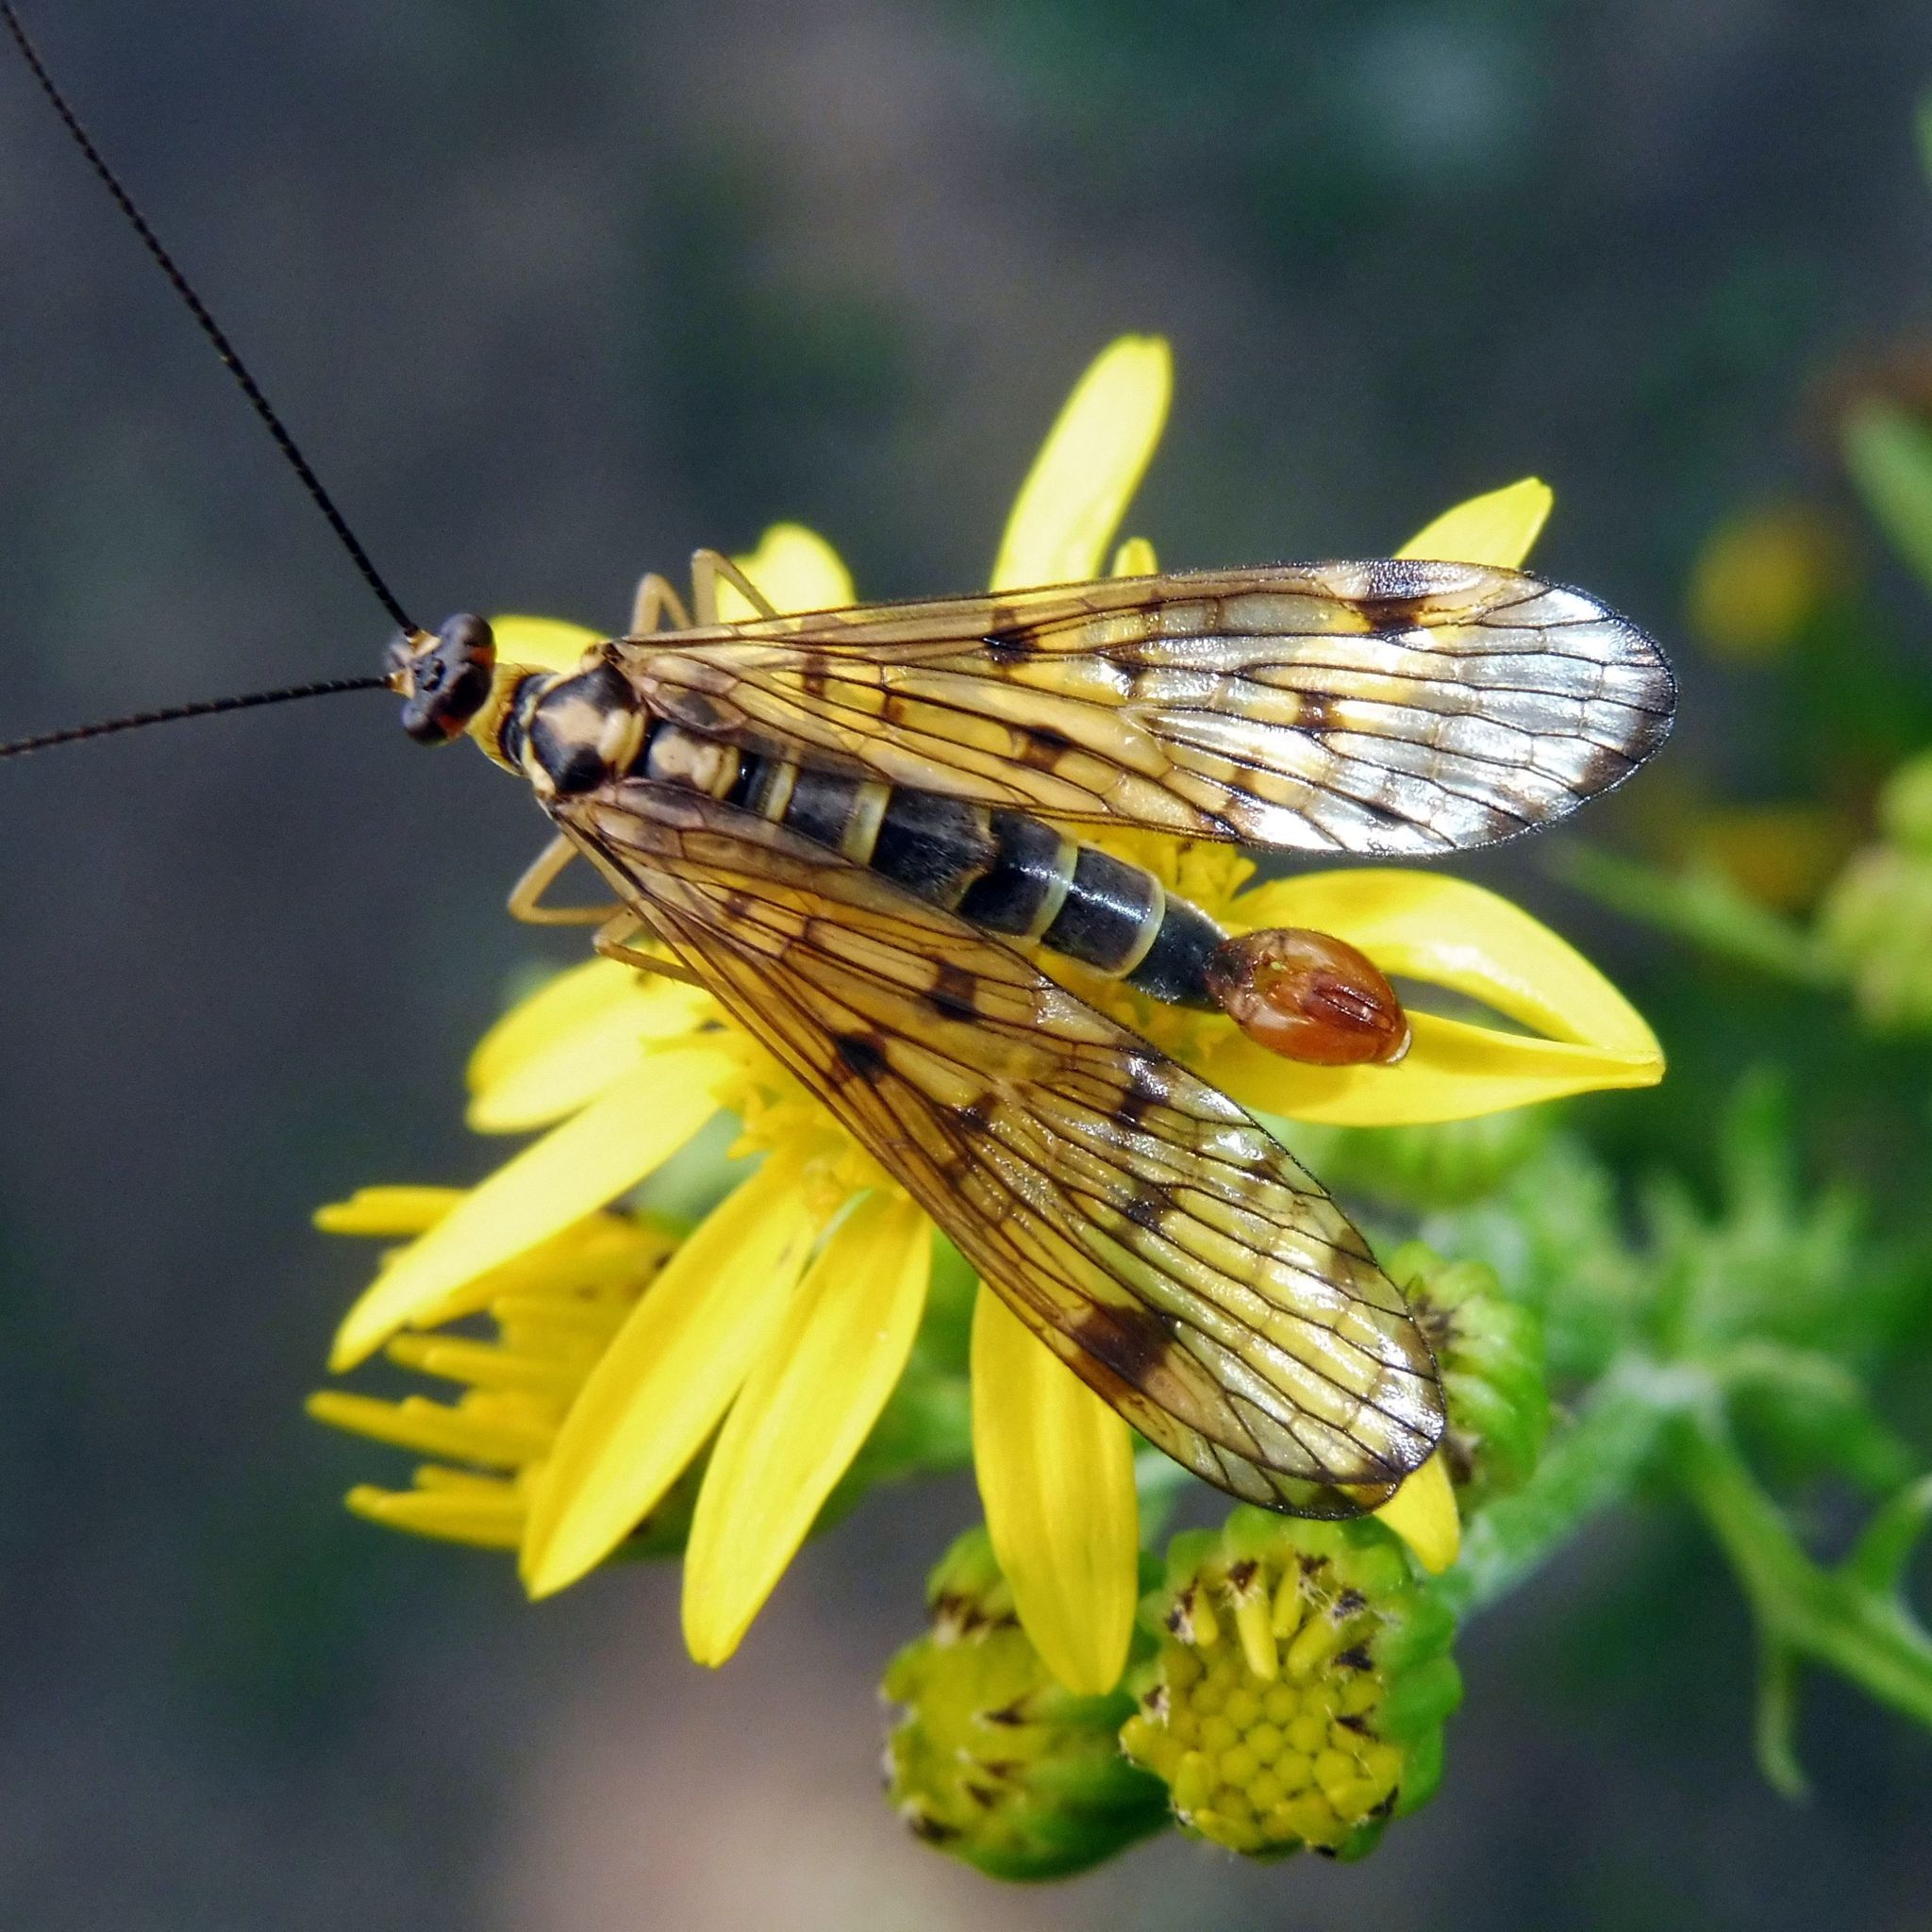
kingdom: Animalia
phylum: Arthropoda
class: Insecta
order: Mecoptera
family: Panorpidae
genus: Panorpa
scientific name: Panorpa germanica
